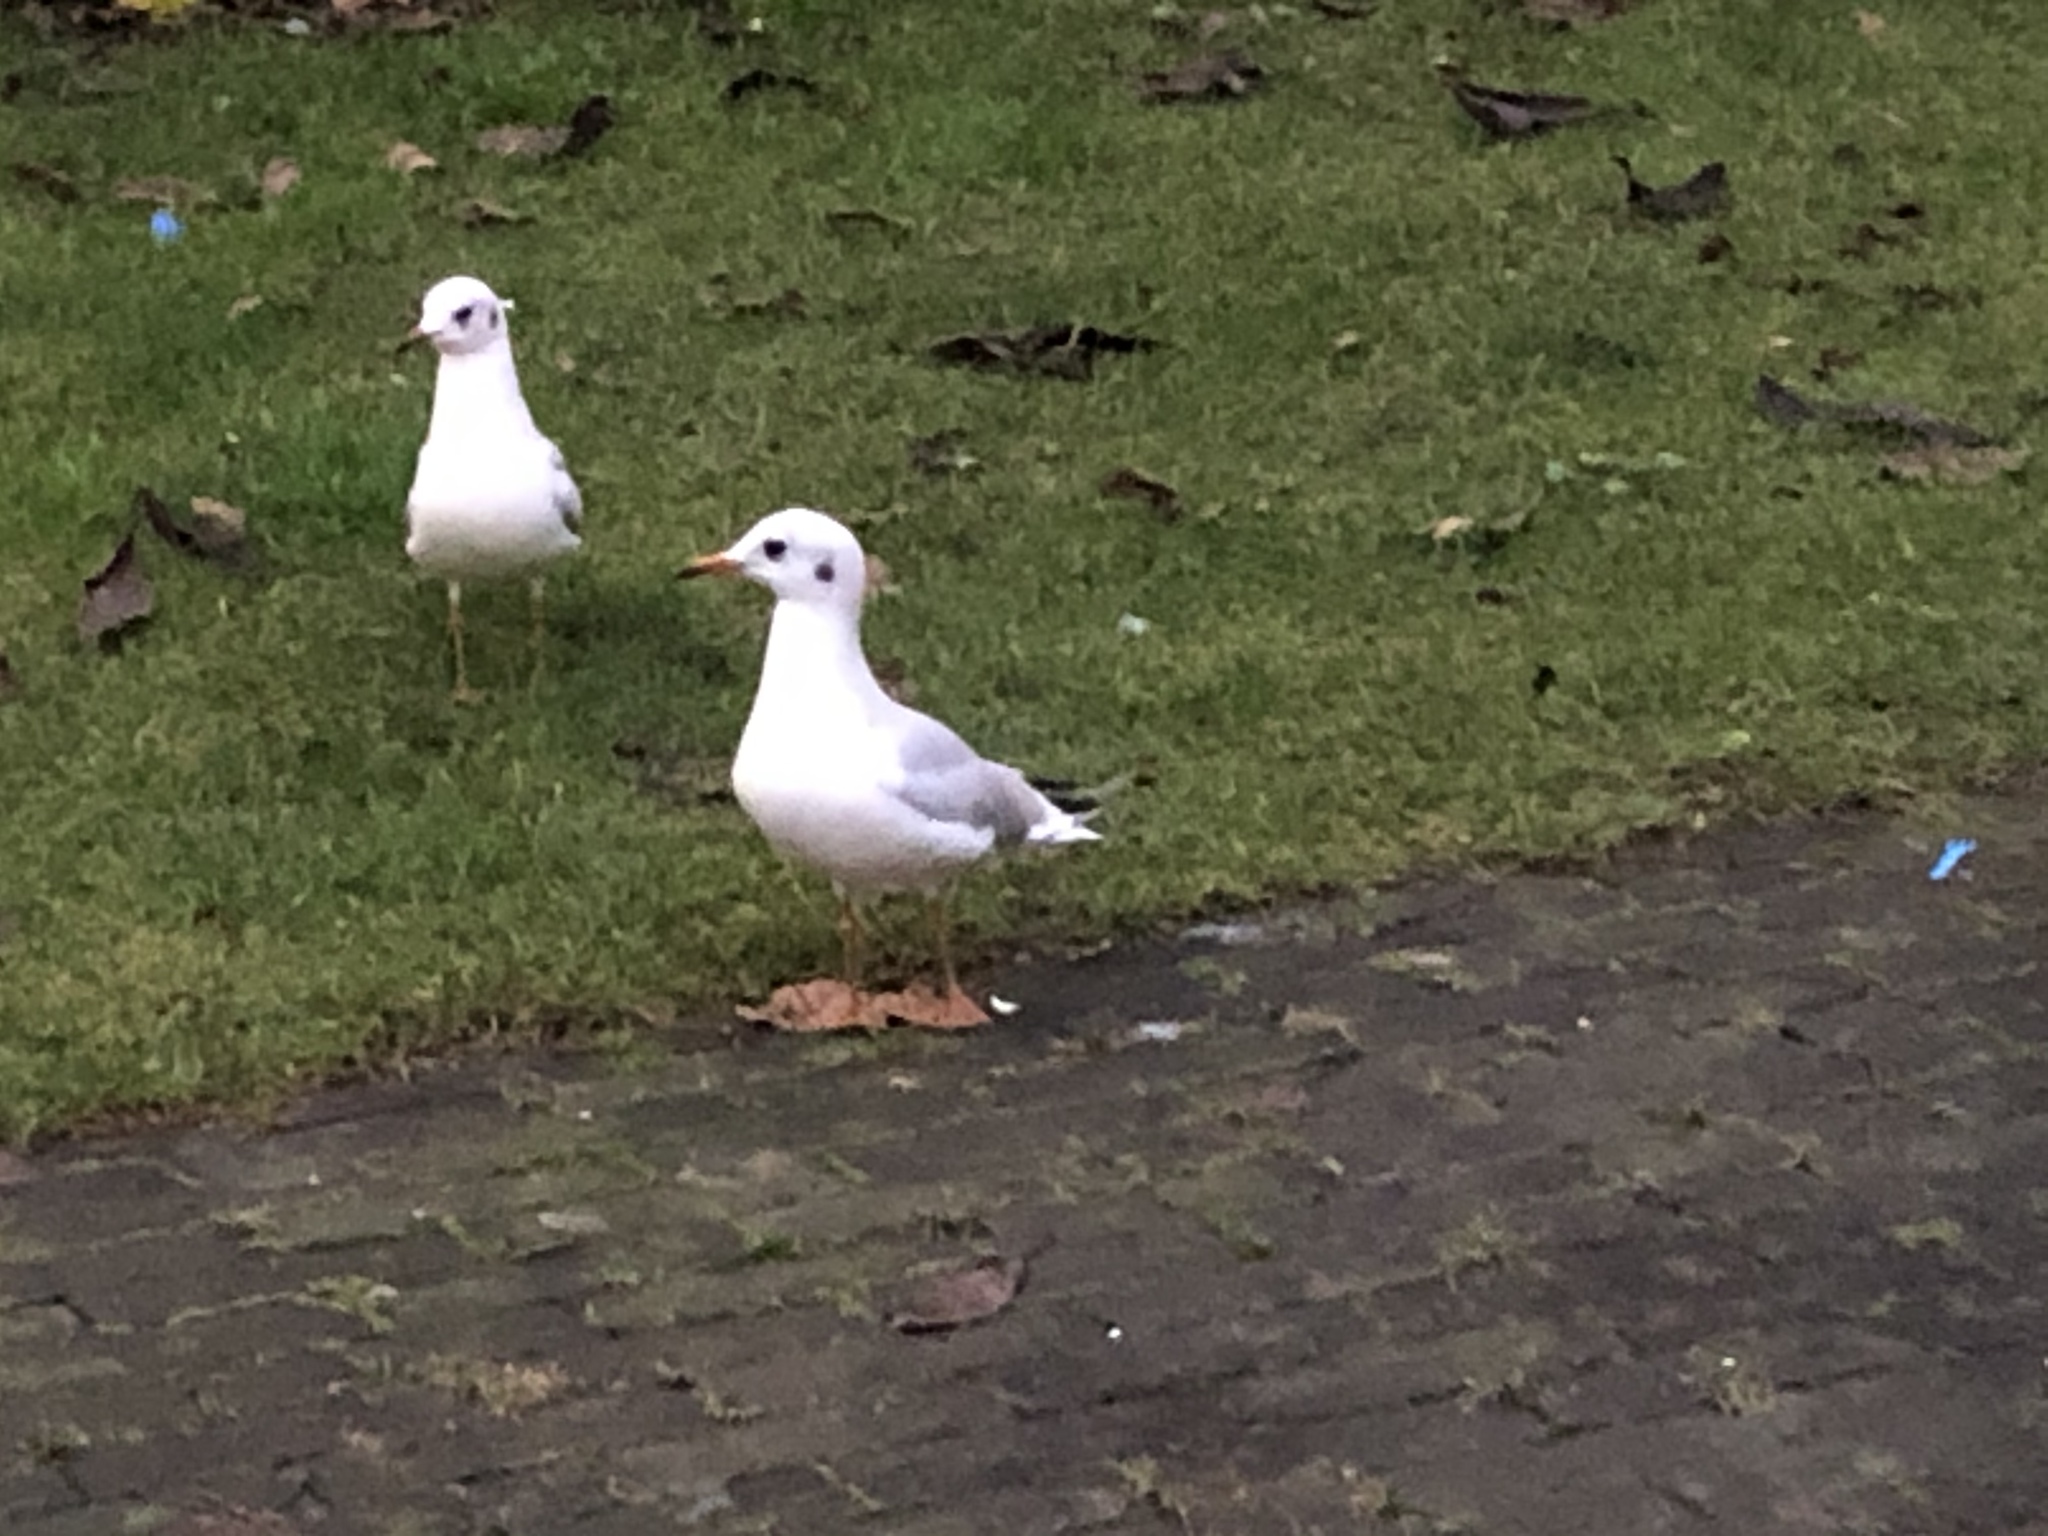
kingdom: Animalia
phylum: Chordata
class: Aves
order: Charadriiformes
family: Laridae
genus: Chroicocephalus
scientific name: Chroicocephalus ridibundus
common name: Black-headed gull
